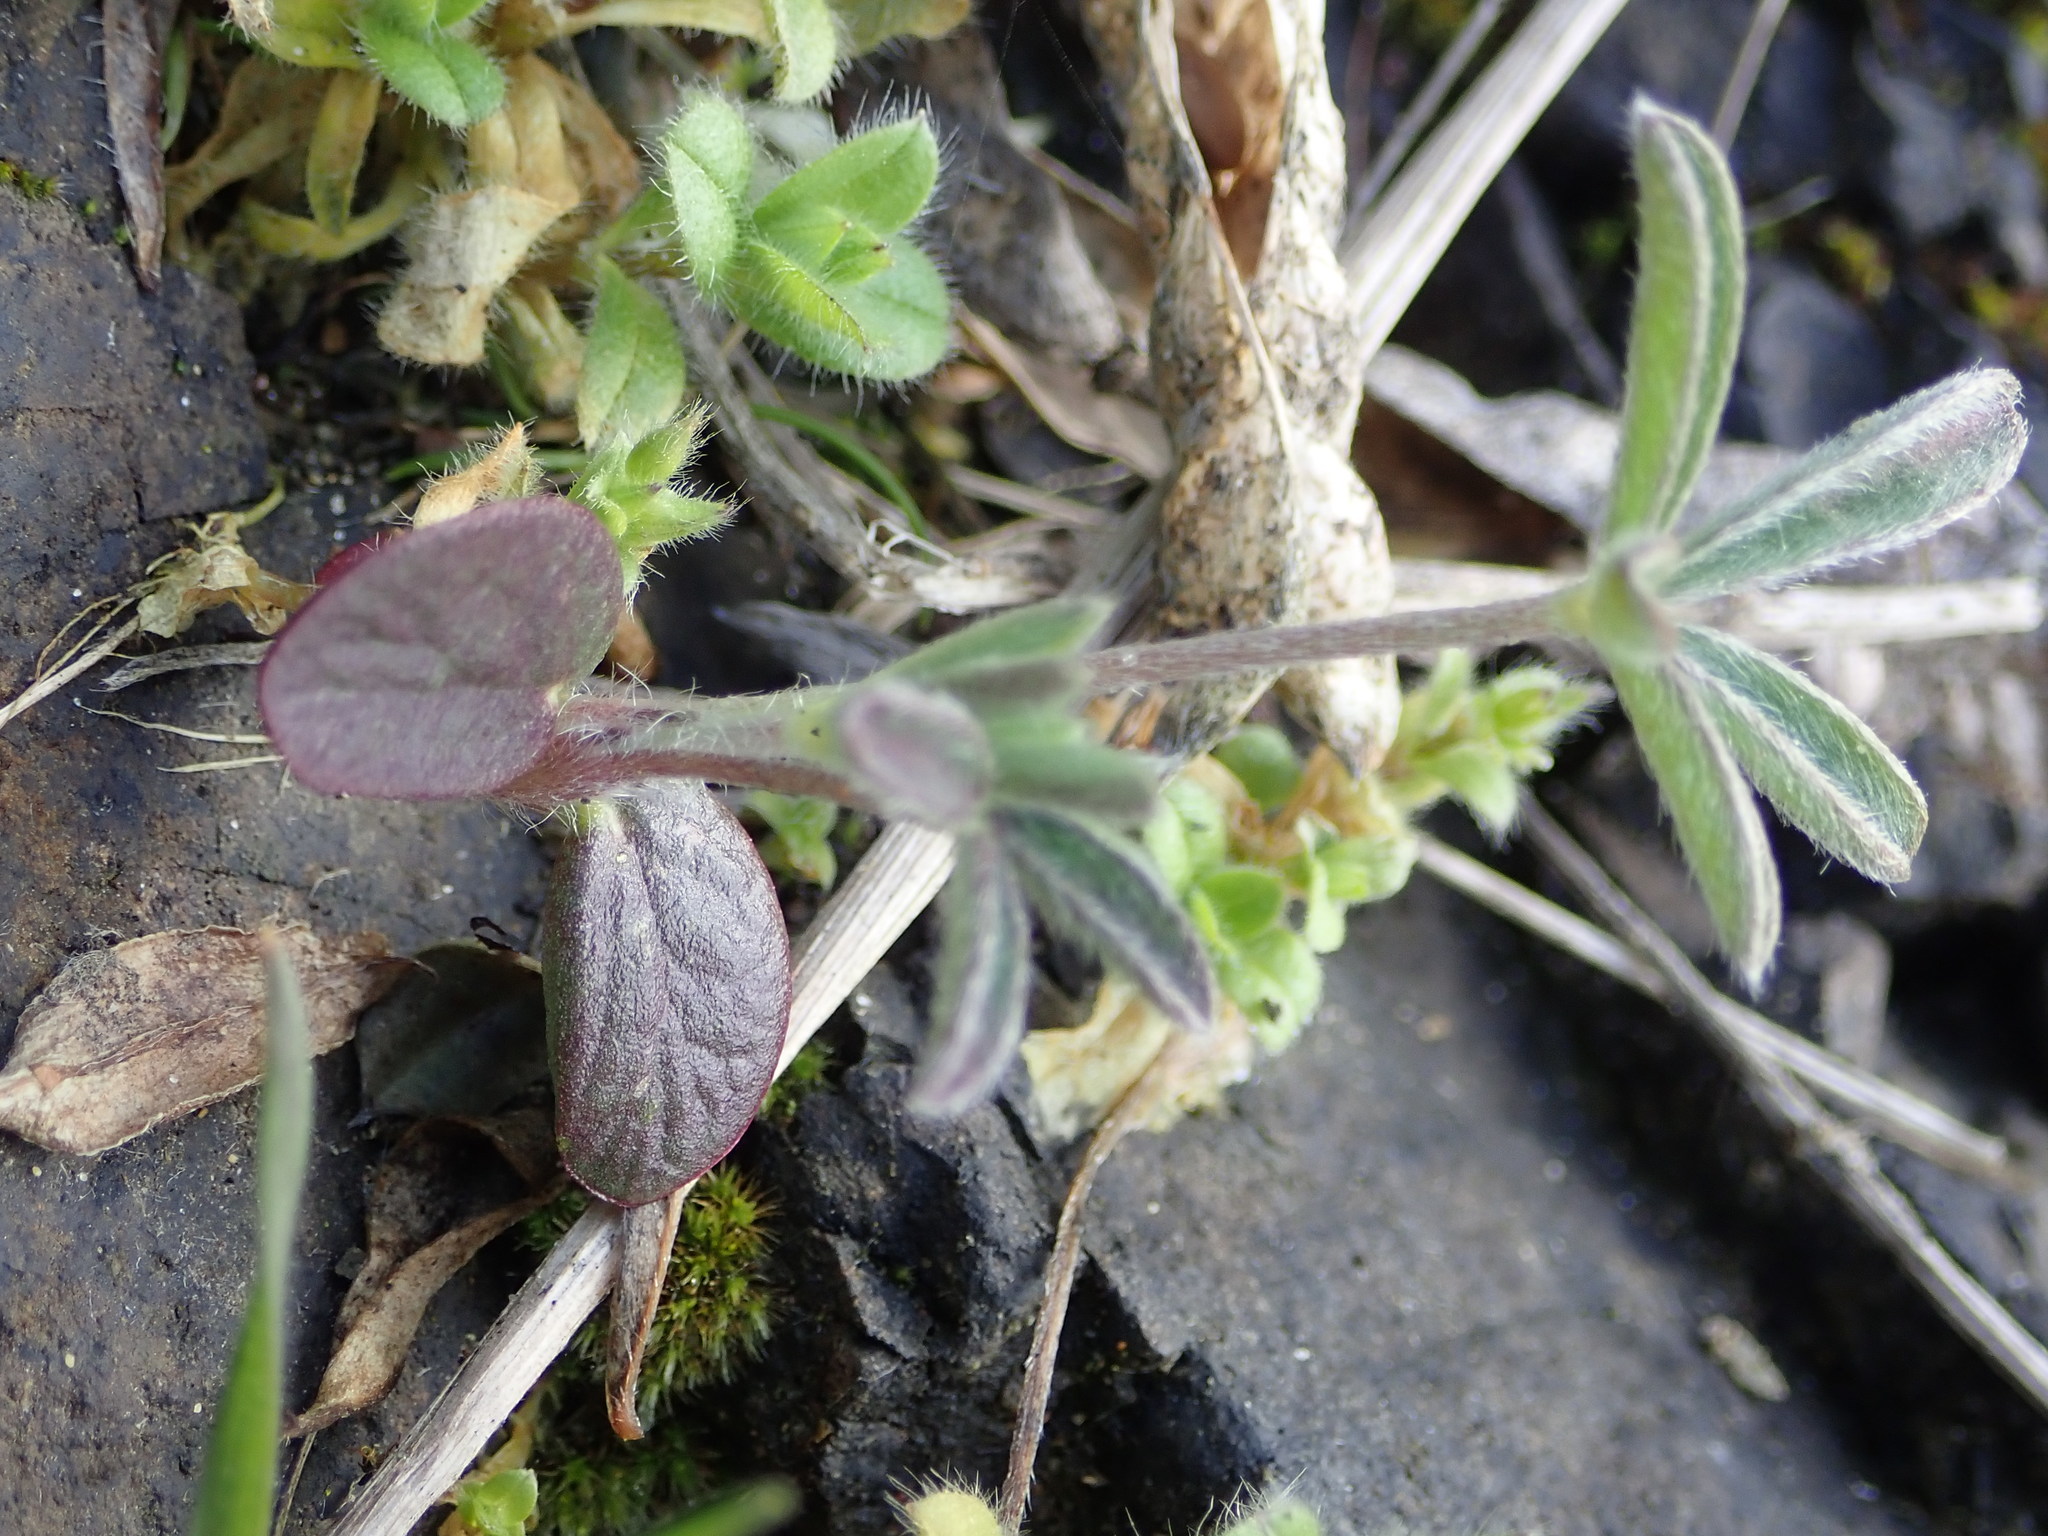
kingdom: Plantae
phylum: Tracheophyta
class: Magnoliopsida
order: Fabales
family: Fabaceae
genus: Lupinus
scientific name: Lupinus arboreus
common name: Yellow bush lupine
